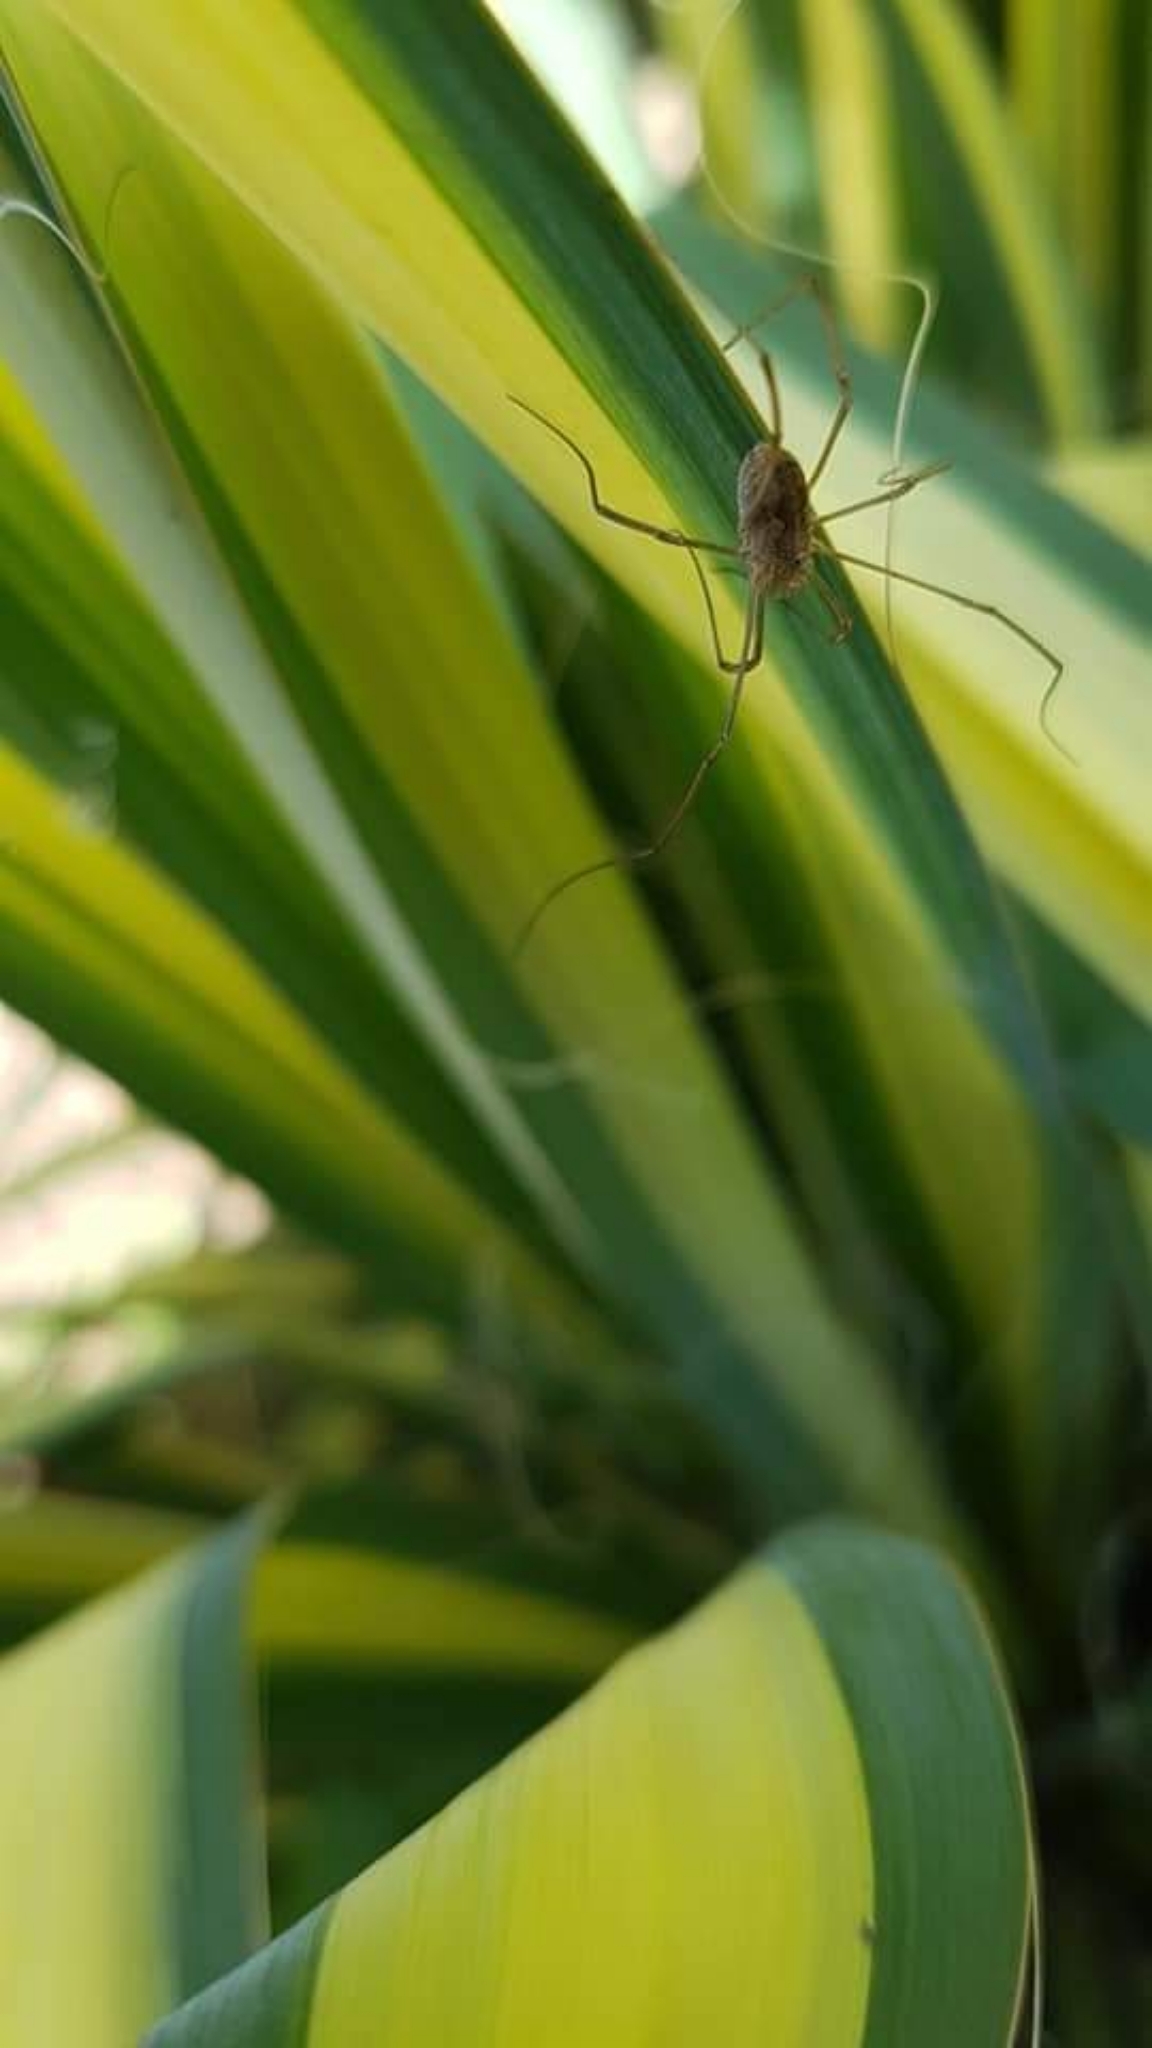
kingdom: Animalia
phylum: Arthropoda
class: Arachnida
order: Opiliones
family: Phalangiidae
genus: Phalangium
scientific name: Phalangium opilio
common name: Daddy longleg
